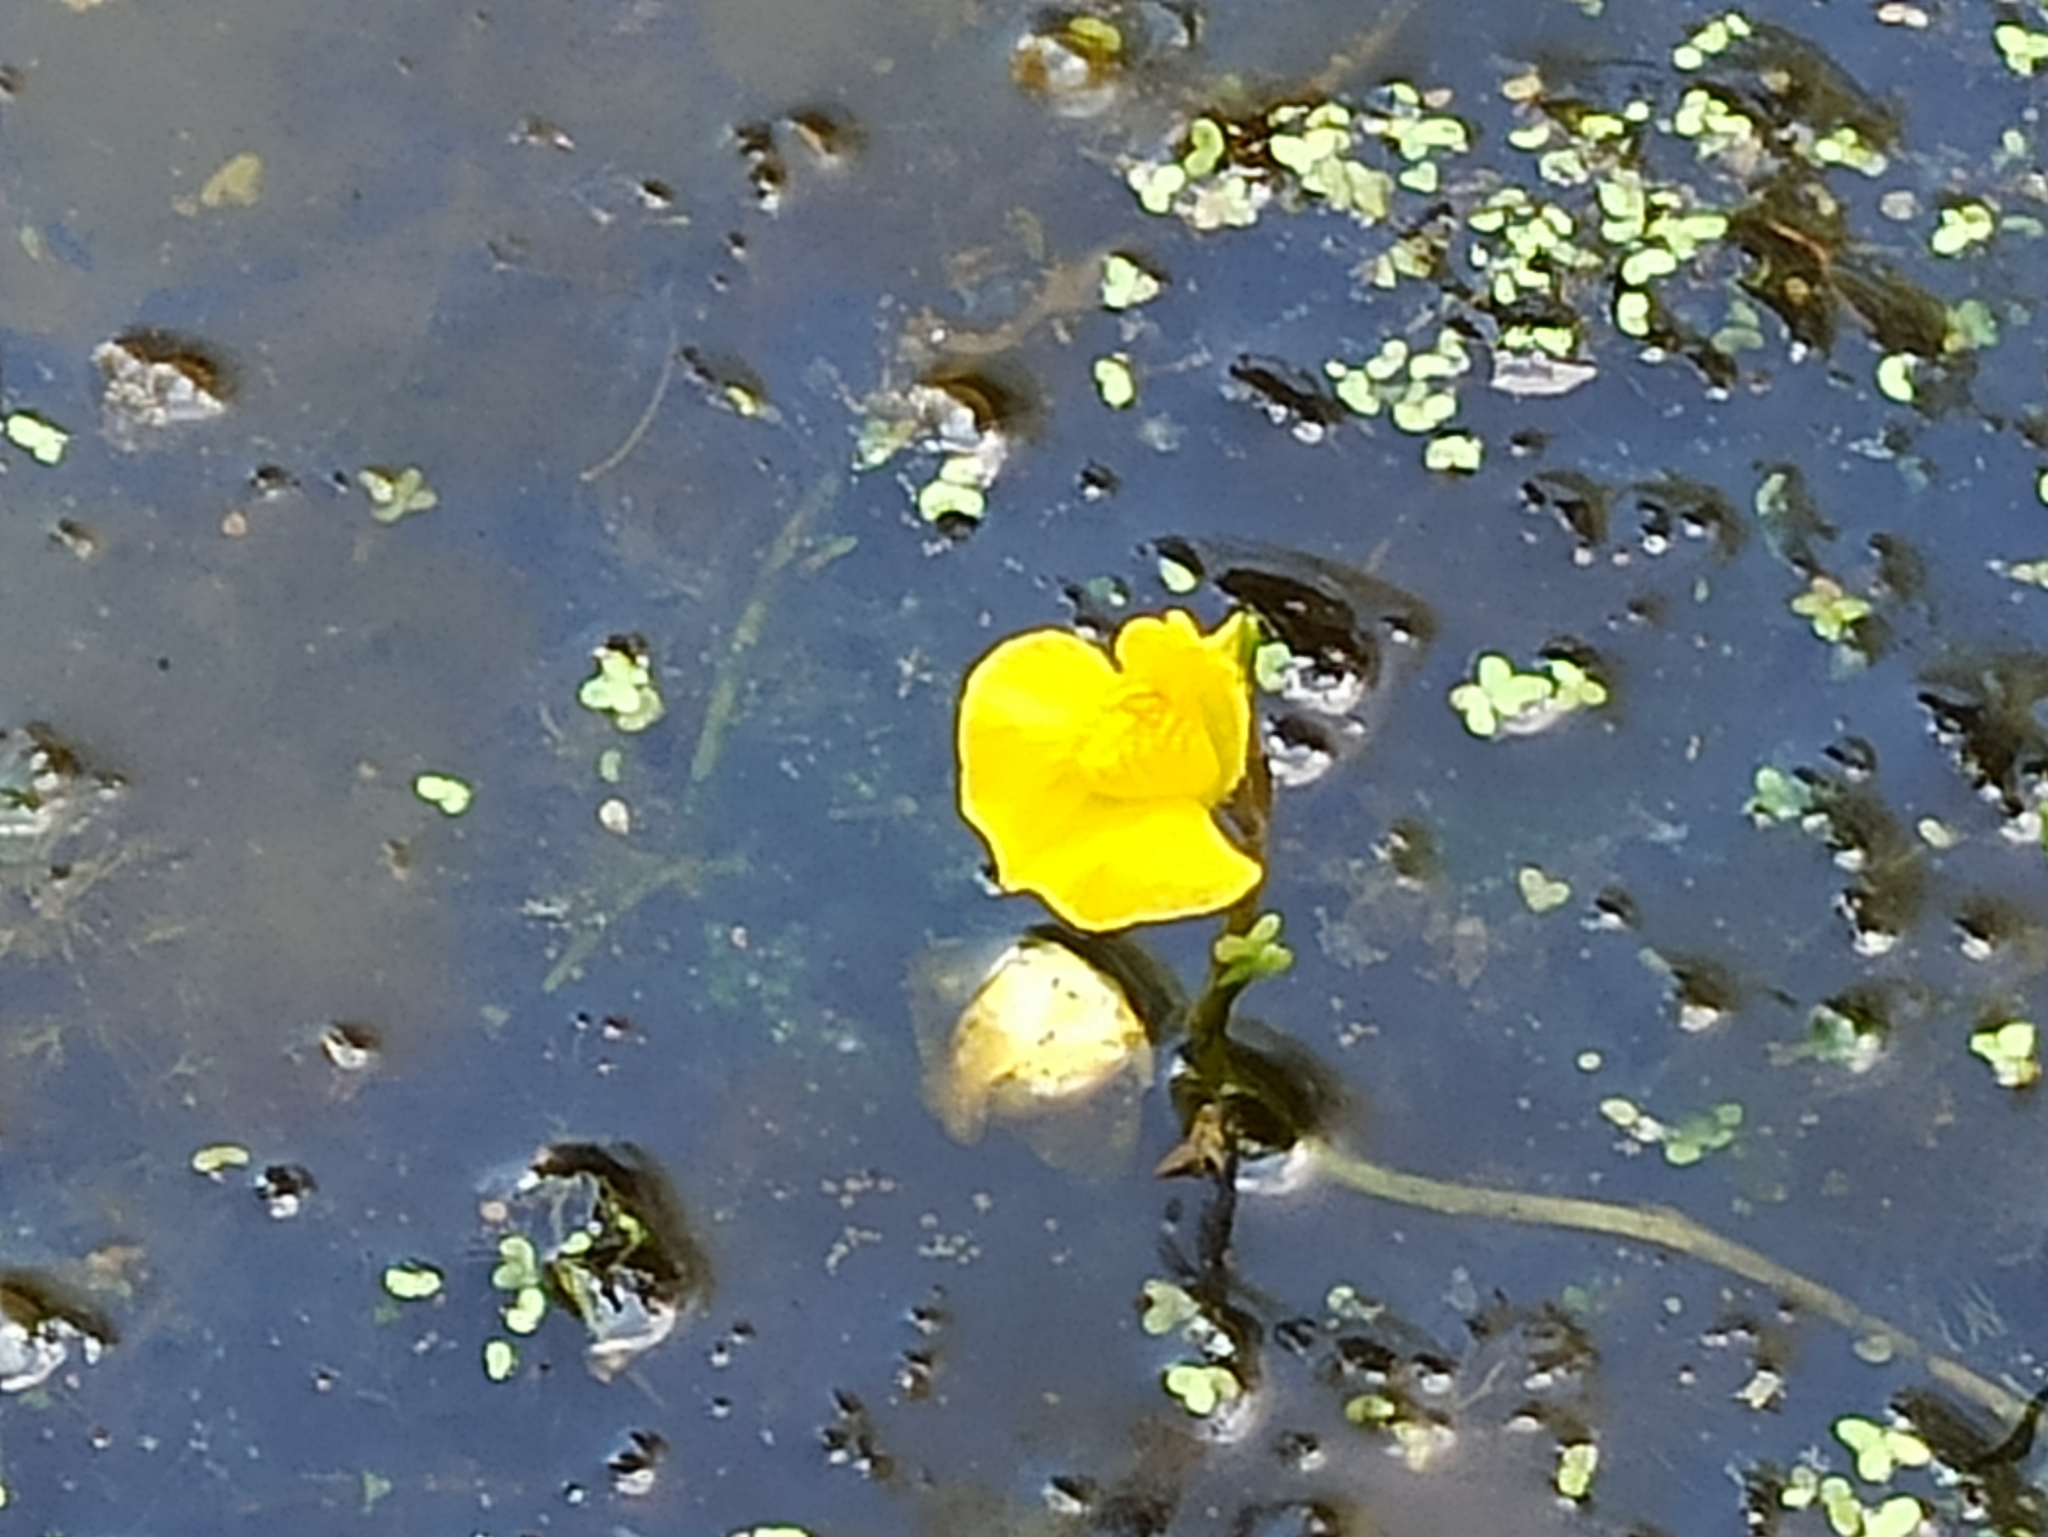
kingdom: Plantae
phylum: Tracheophyta
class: Magnoliopsida
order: Lamiales
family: Lentibulariaceae
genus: Utricularia
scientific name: Utricularia australis
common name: Bladderwort
